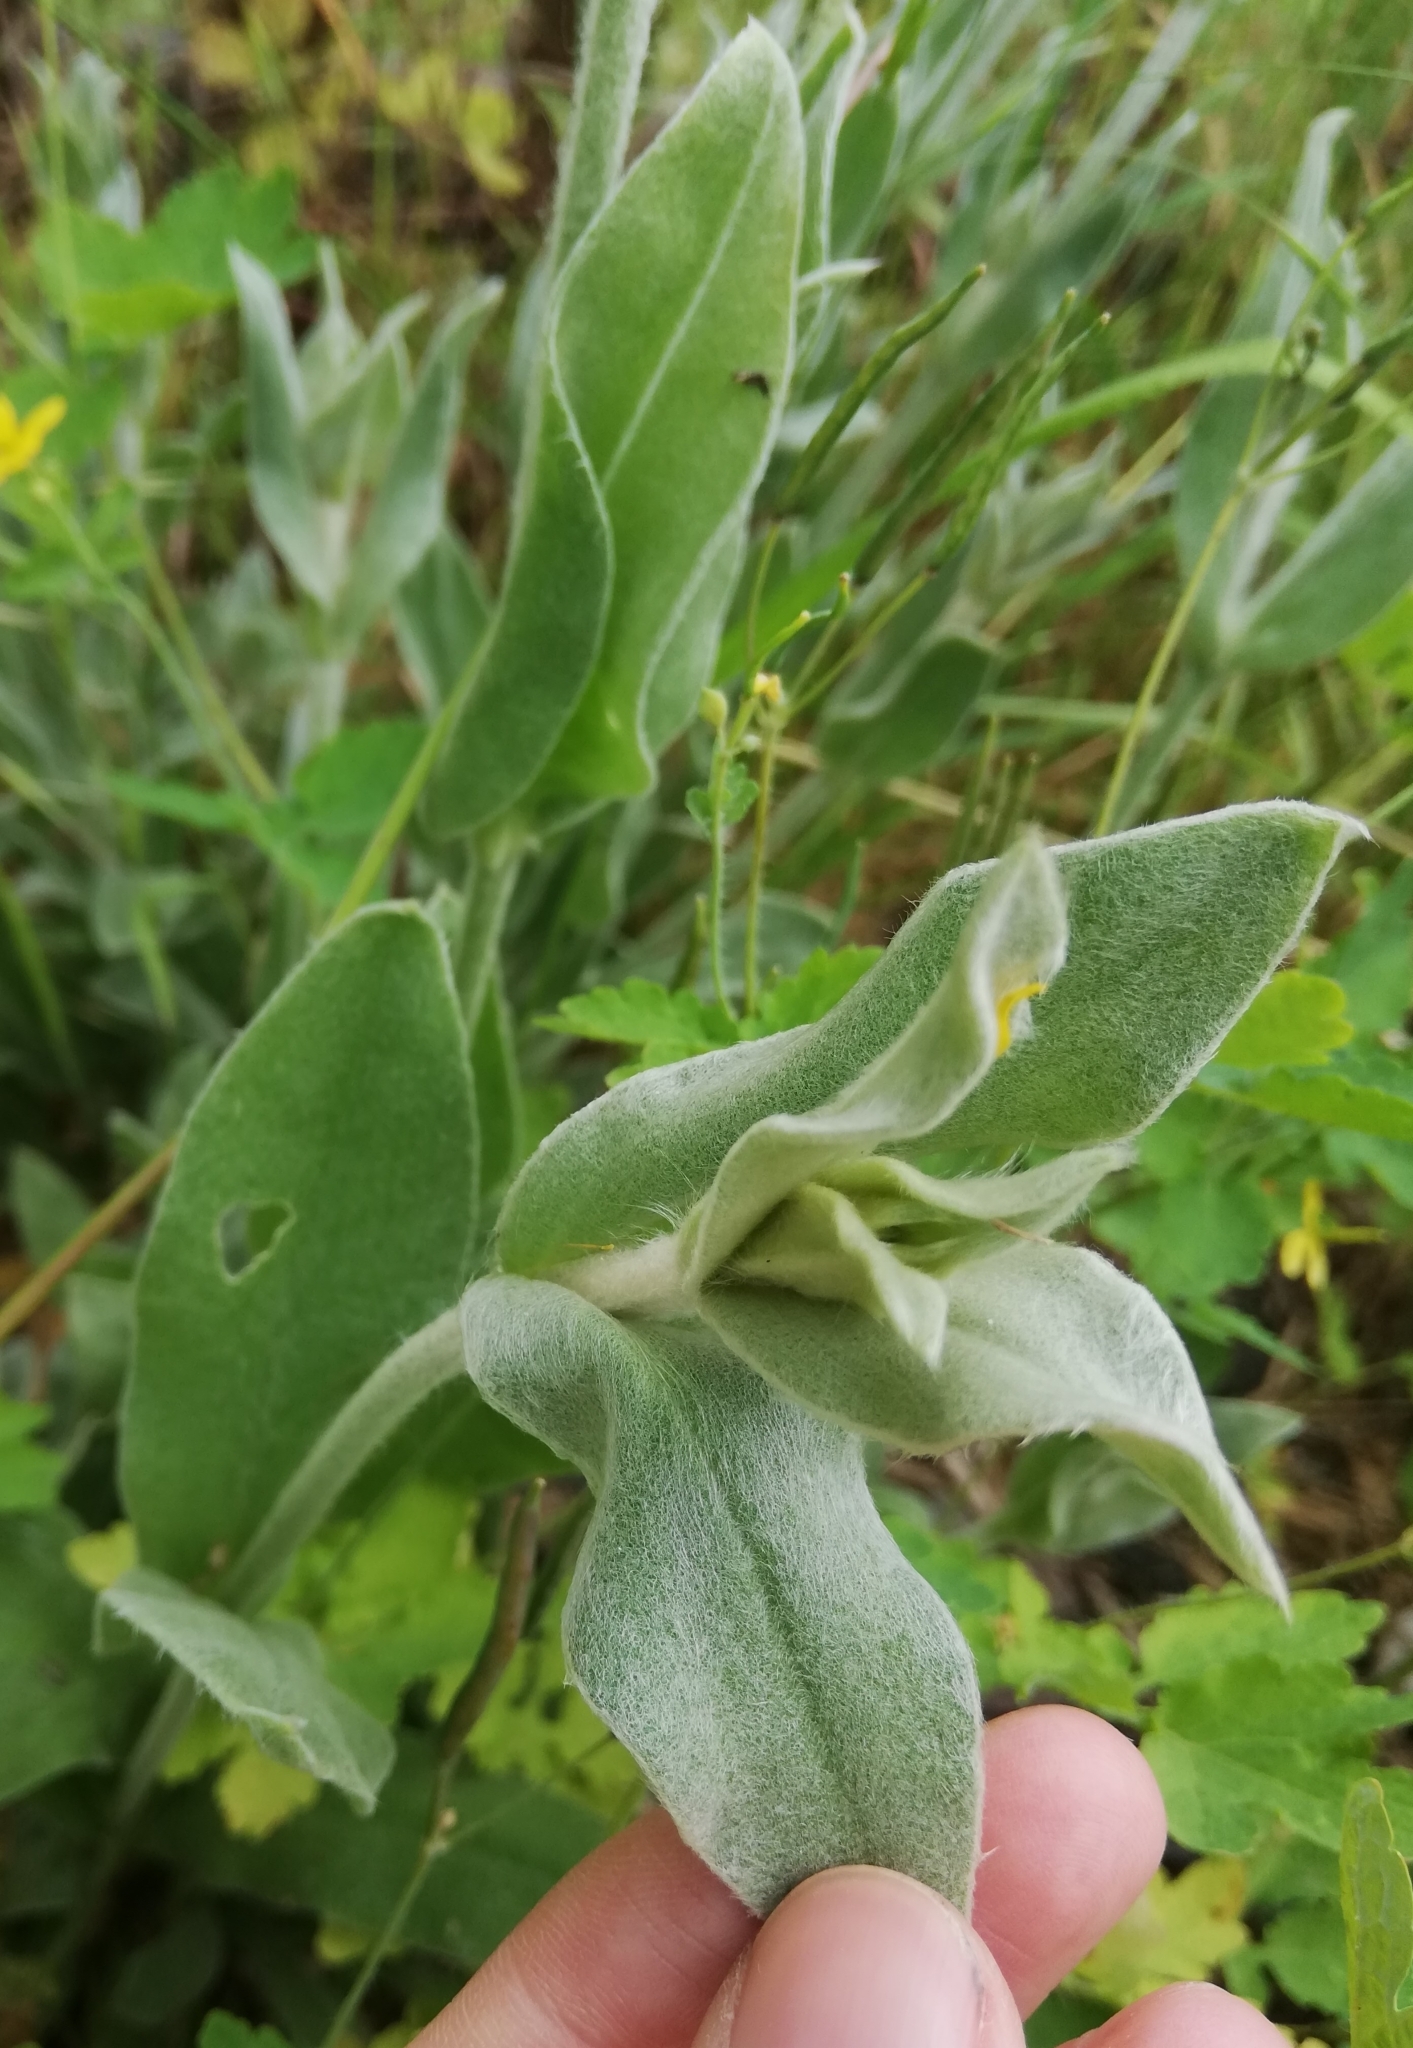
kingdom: Plantae
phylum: Tracheophyta
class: Magnoliopsida
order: Caryophyllales
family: Caryophyllaceae
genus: Silene
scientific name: Silene coronaria
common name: Rose campion
